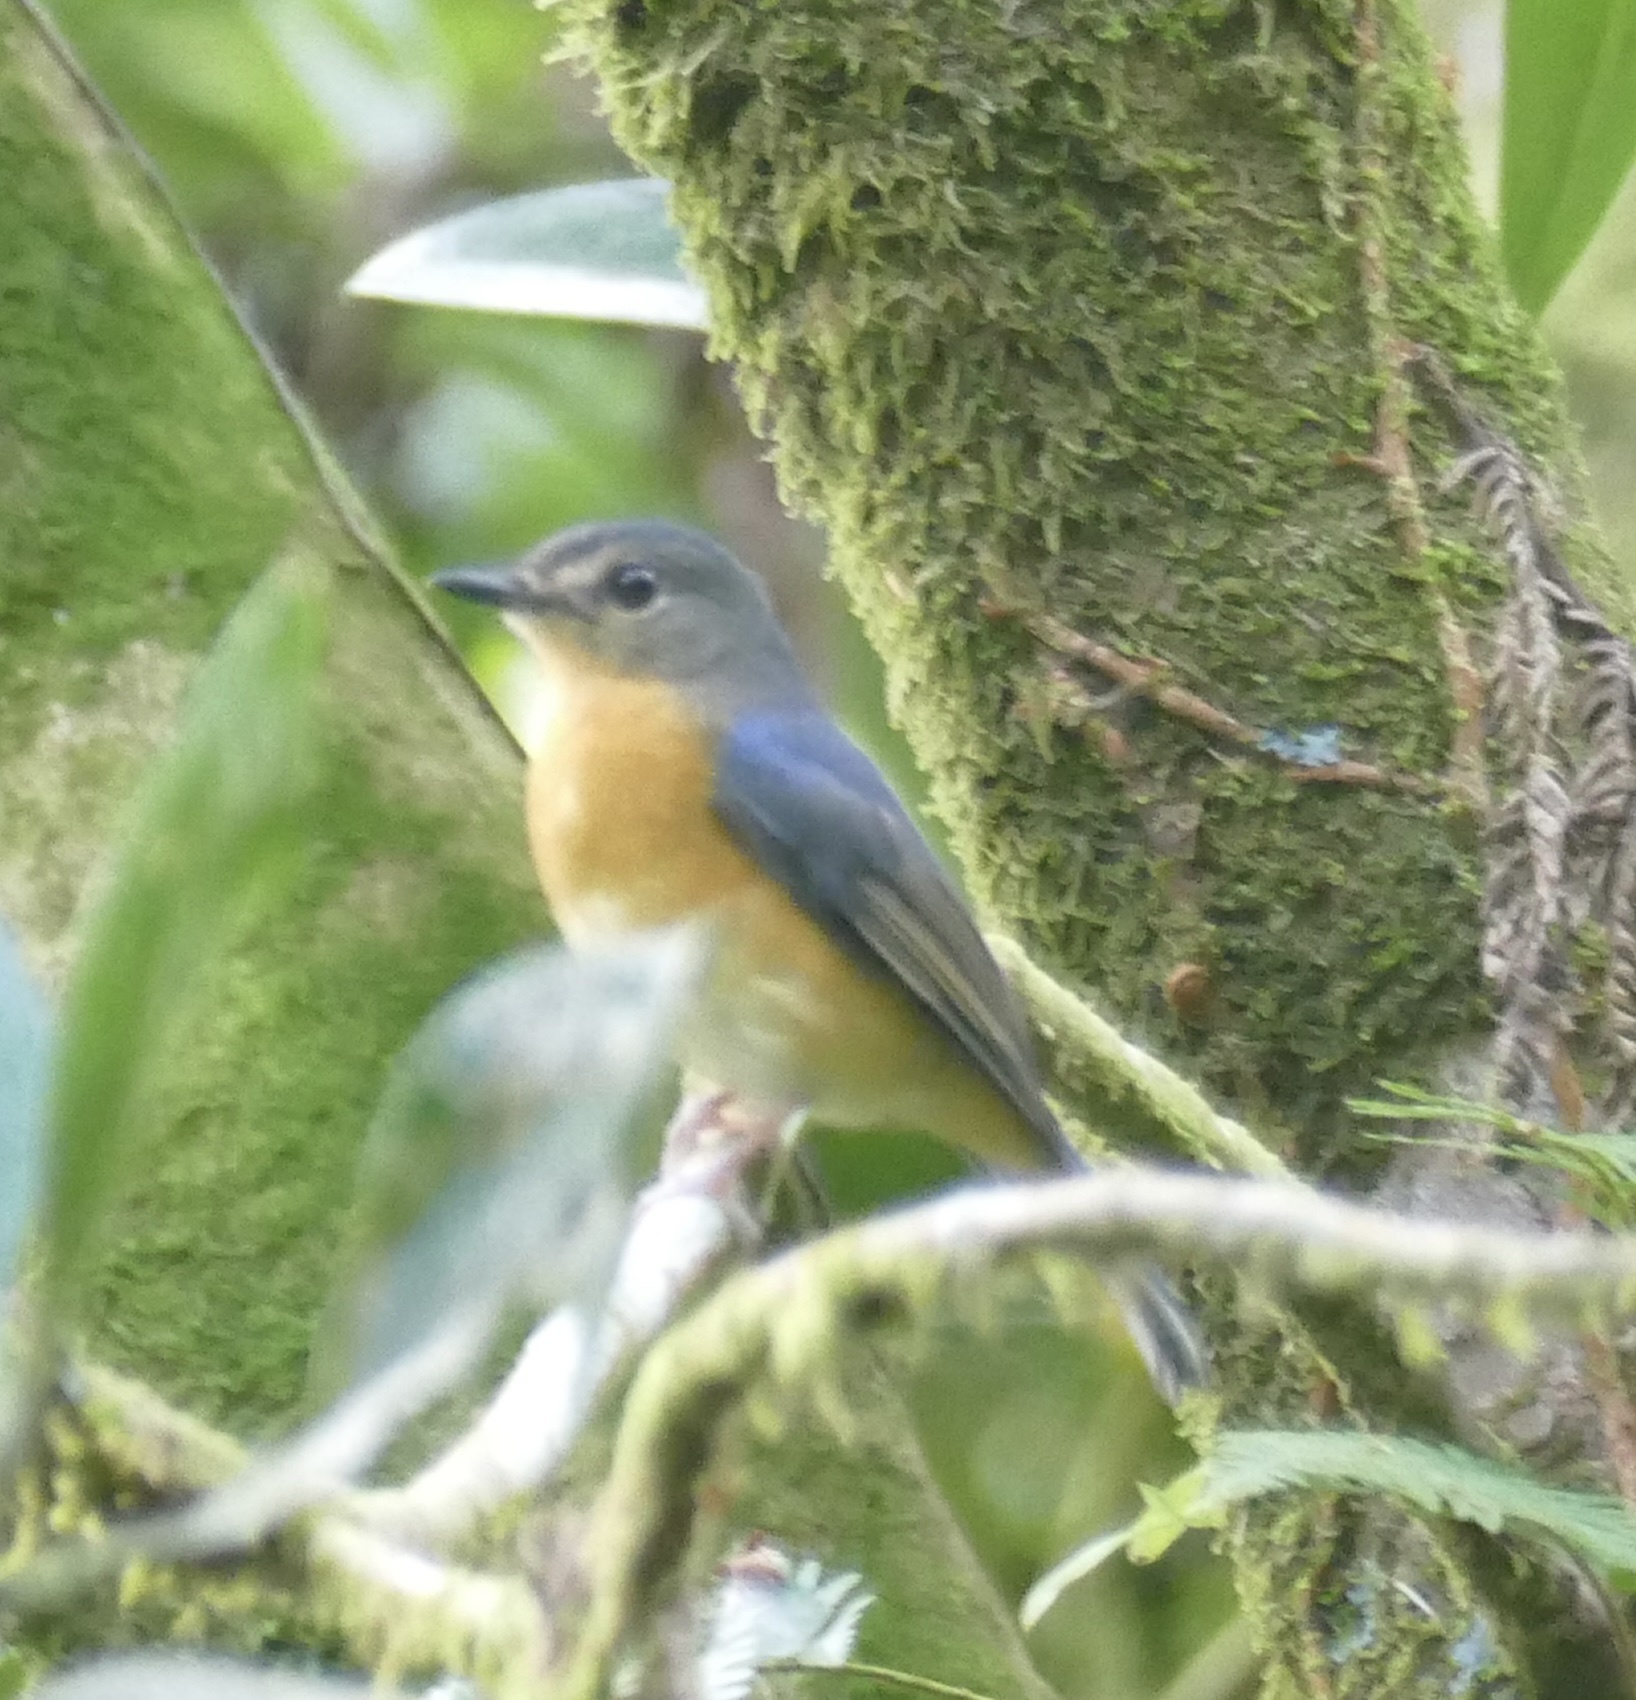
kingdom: Animalia
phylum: Chordata
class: Aves
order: Passeriformes
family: Muscicapidae
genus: Cyornis
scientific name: Cyornis omissus
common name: Sulawesi blue flycatcher
